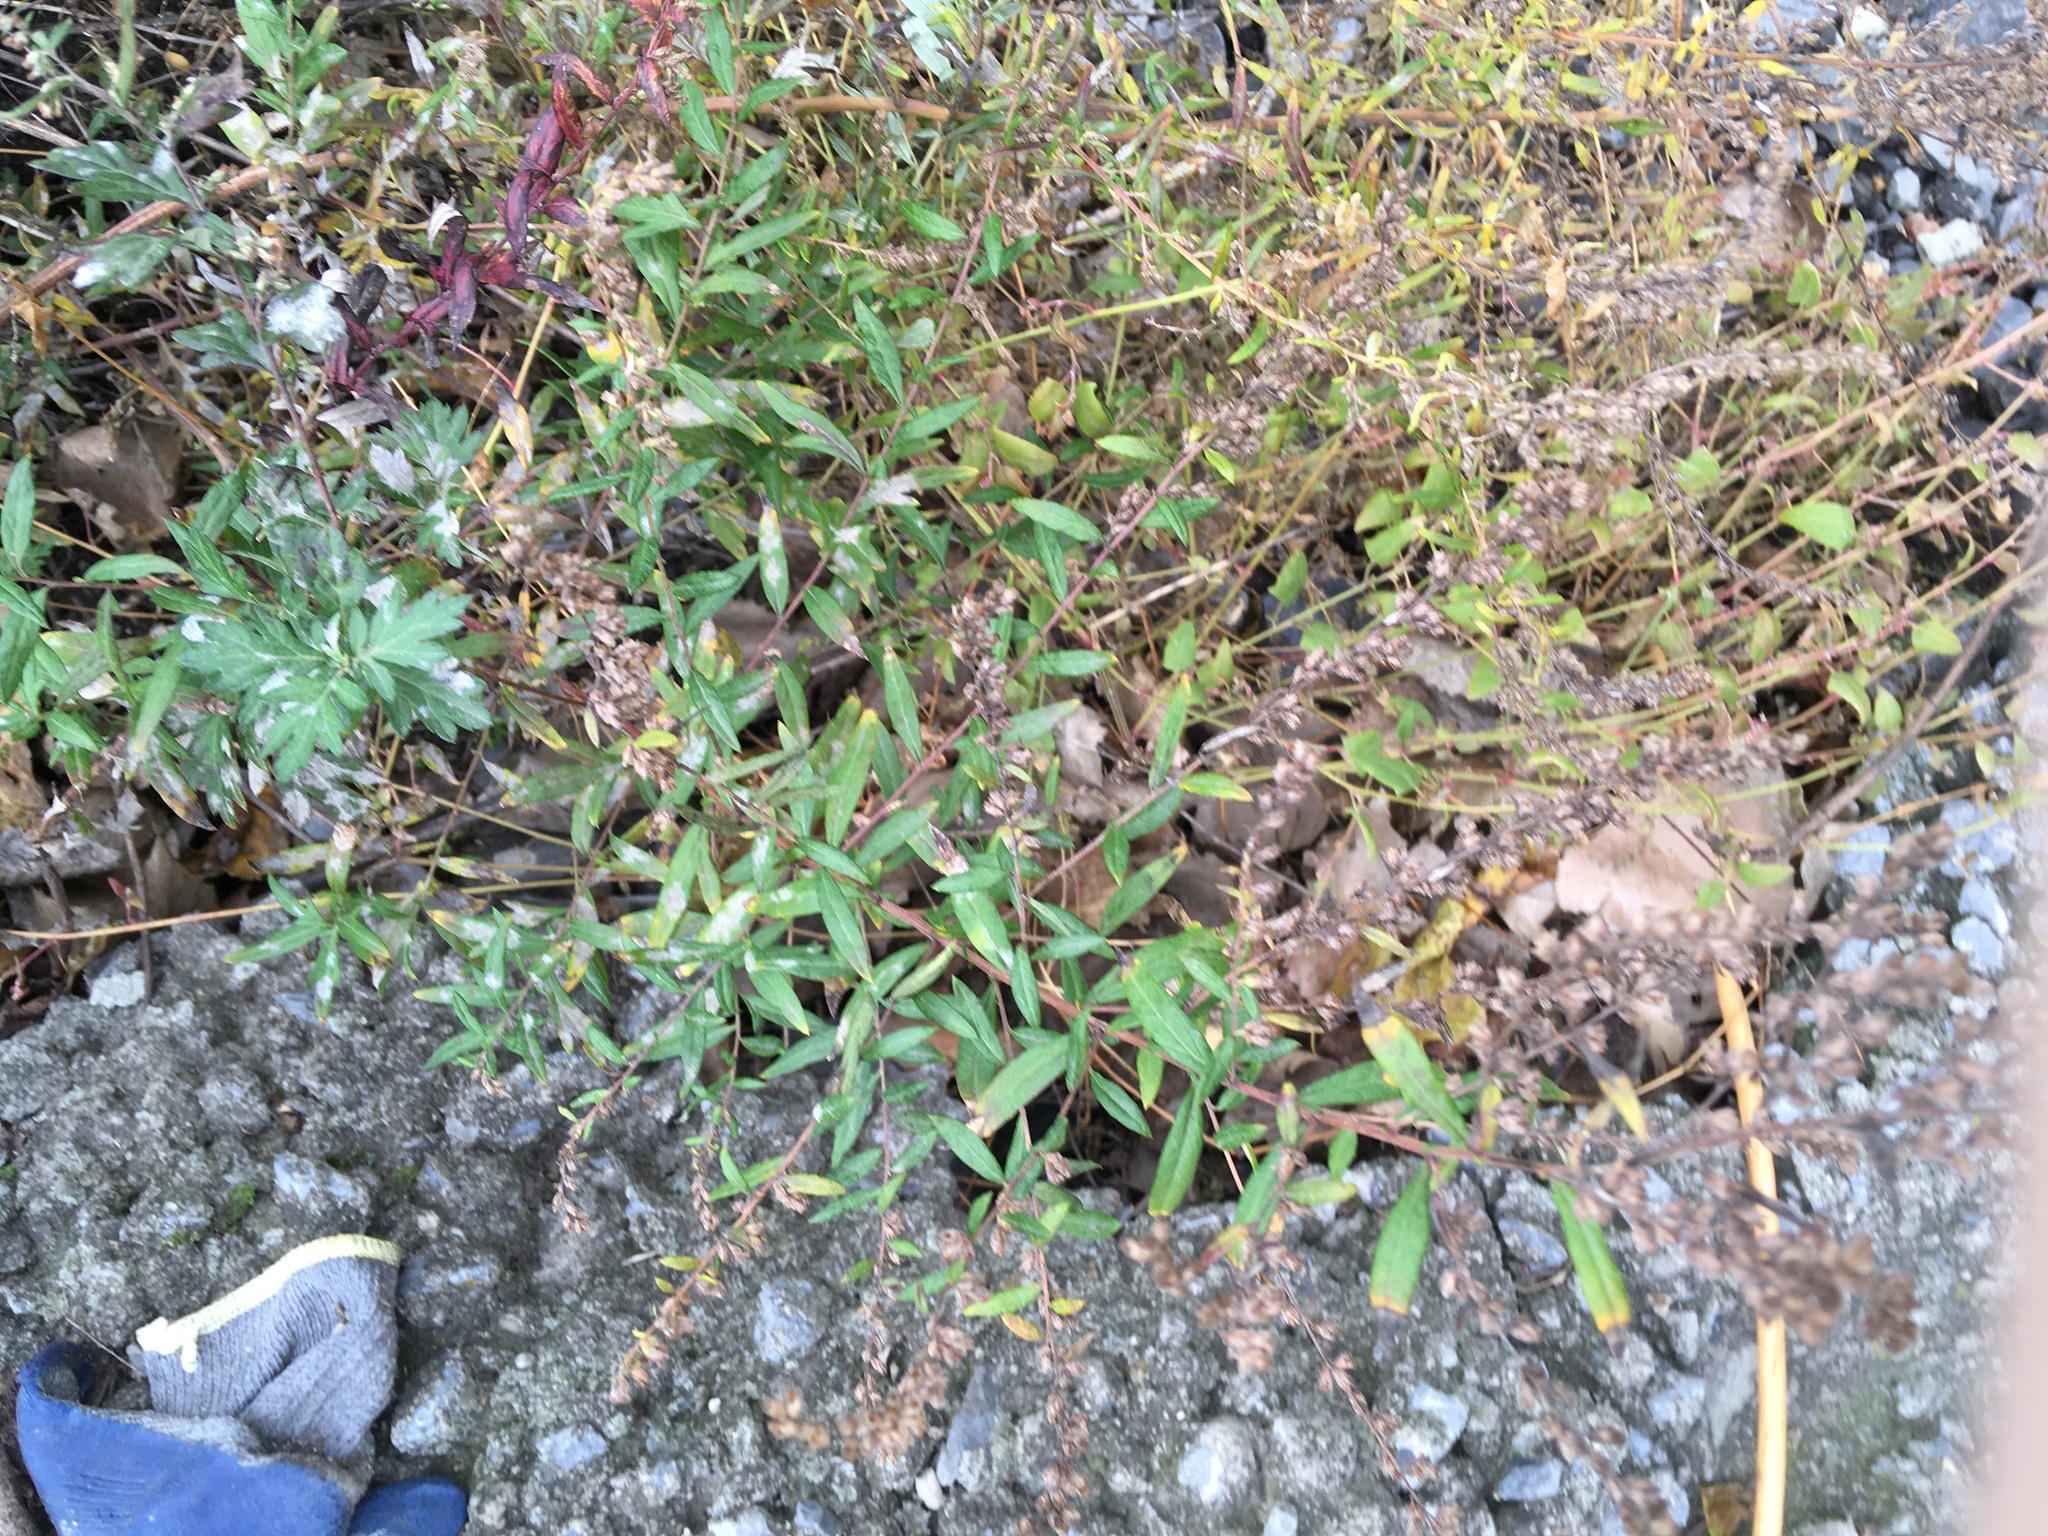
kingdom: Plantae
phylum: Tracheophyta
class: Magnoliopsida
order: Asterales
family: Asteraceae
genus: Artemisia
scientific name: Artemisia vulgaris
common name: Mugwort
